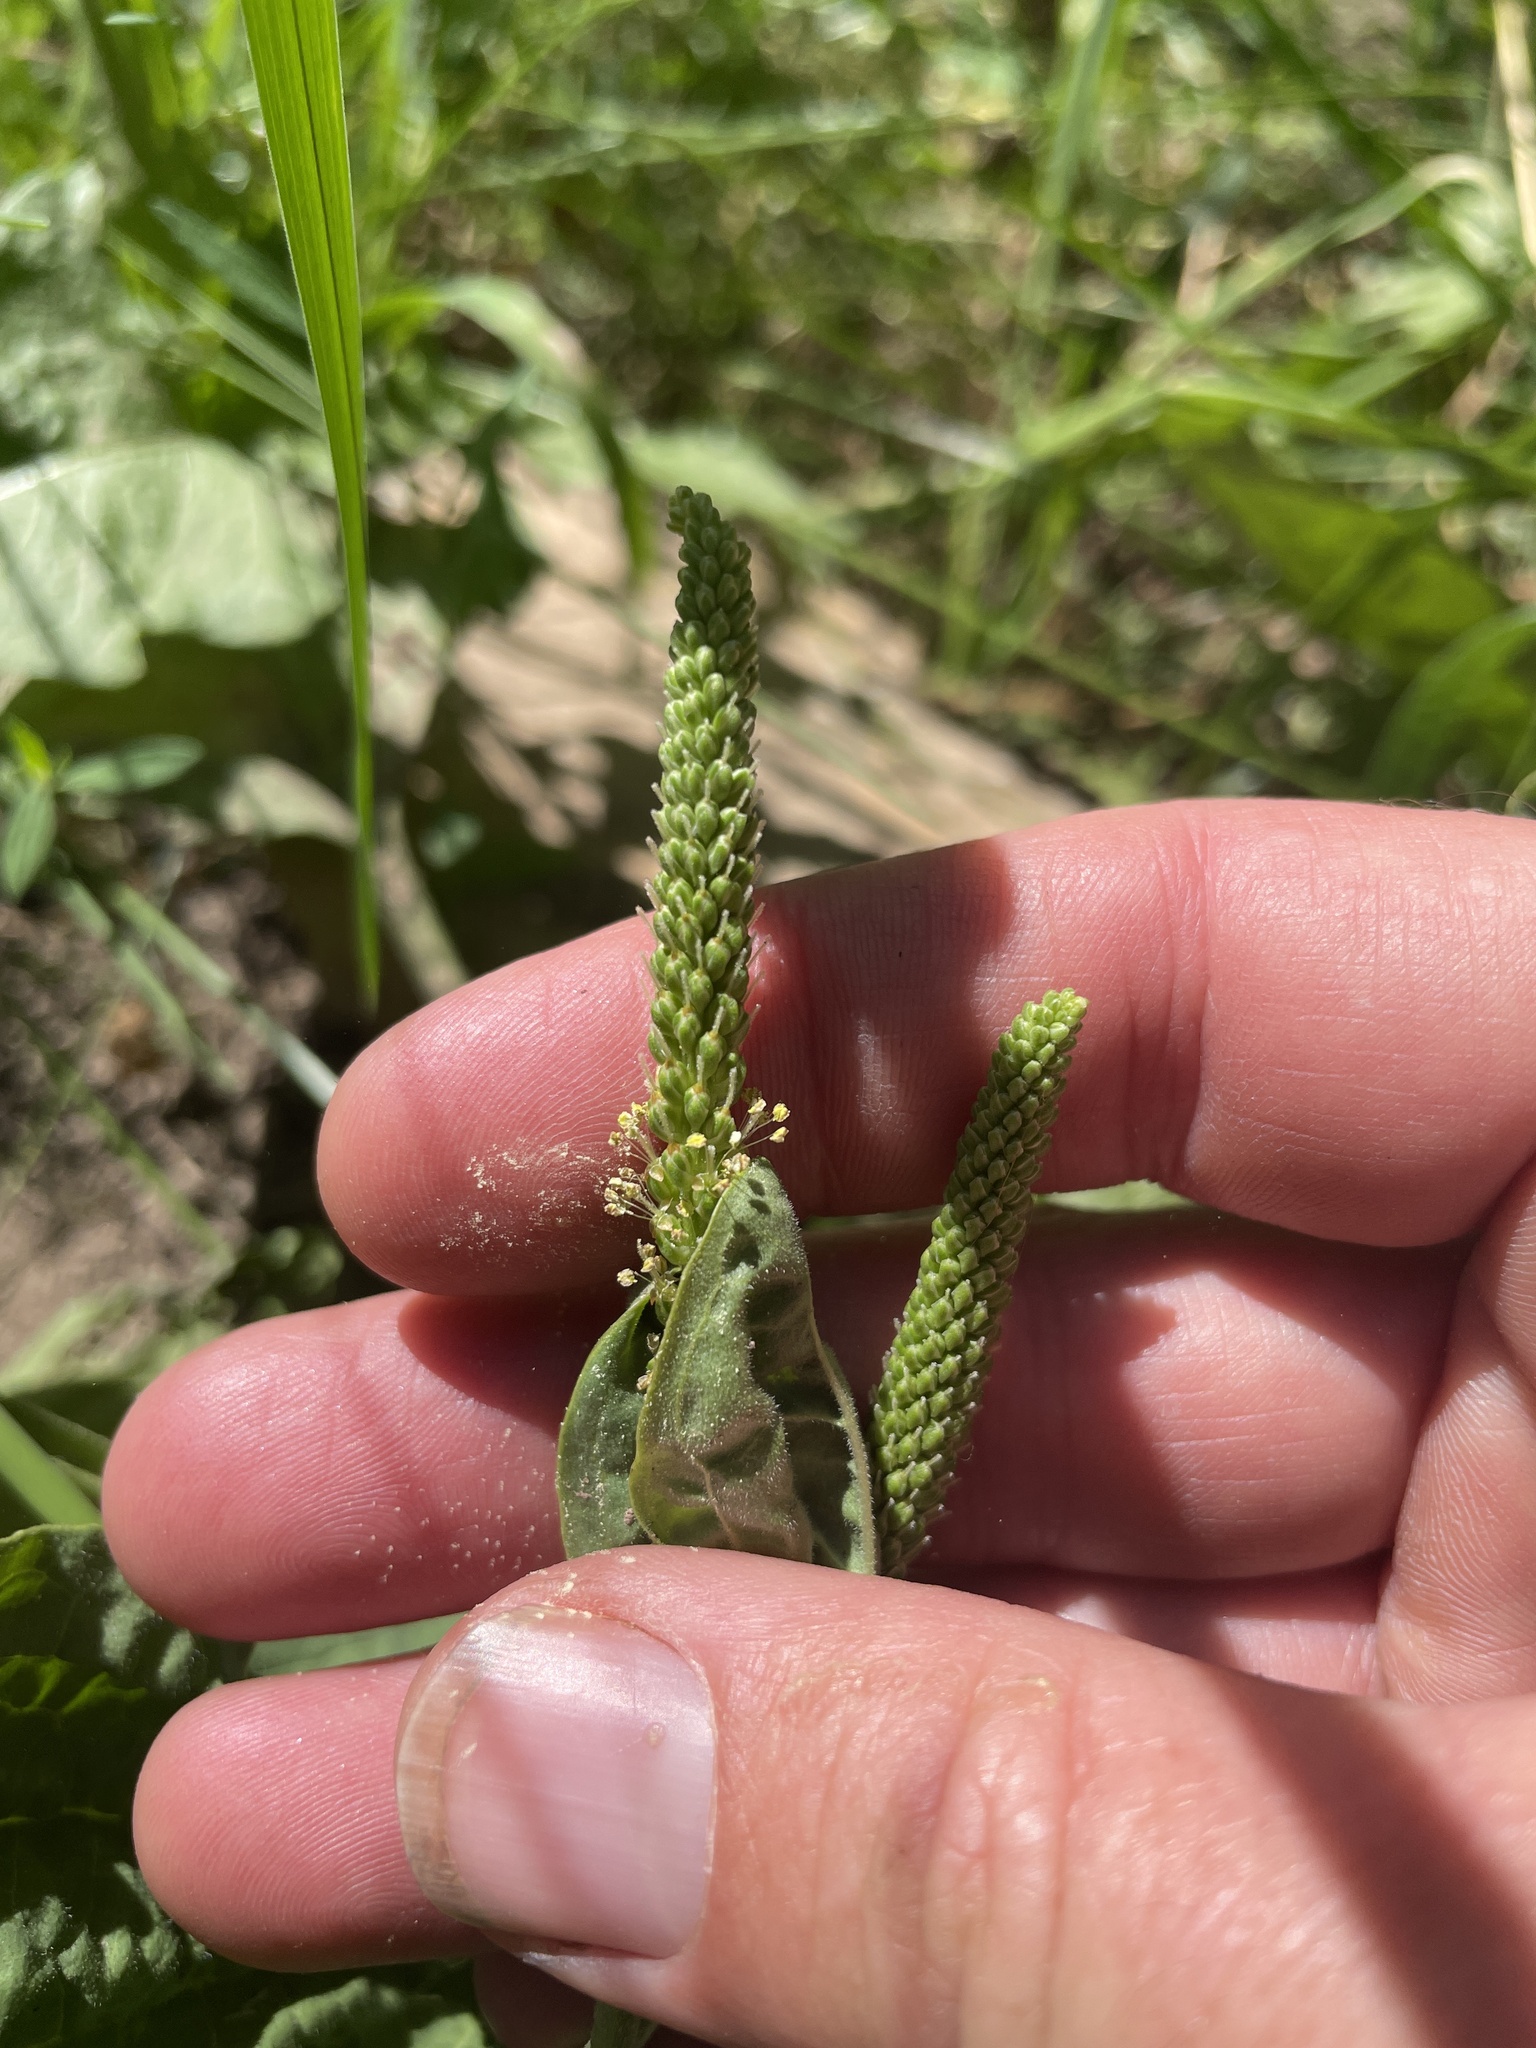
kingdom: Plantae
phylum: Tracheophyta
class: Magnoliopsida
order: Lamiales
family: Plantaginaceae
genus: Plantago
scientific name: Plantago major
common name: Common plantain
